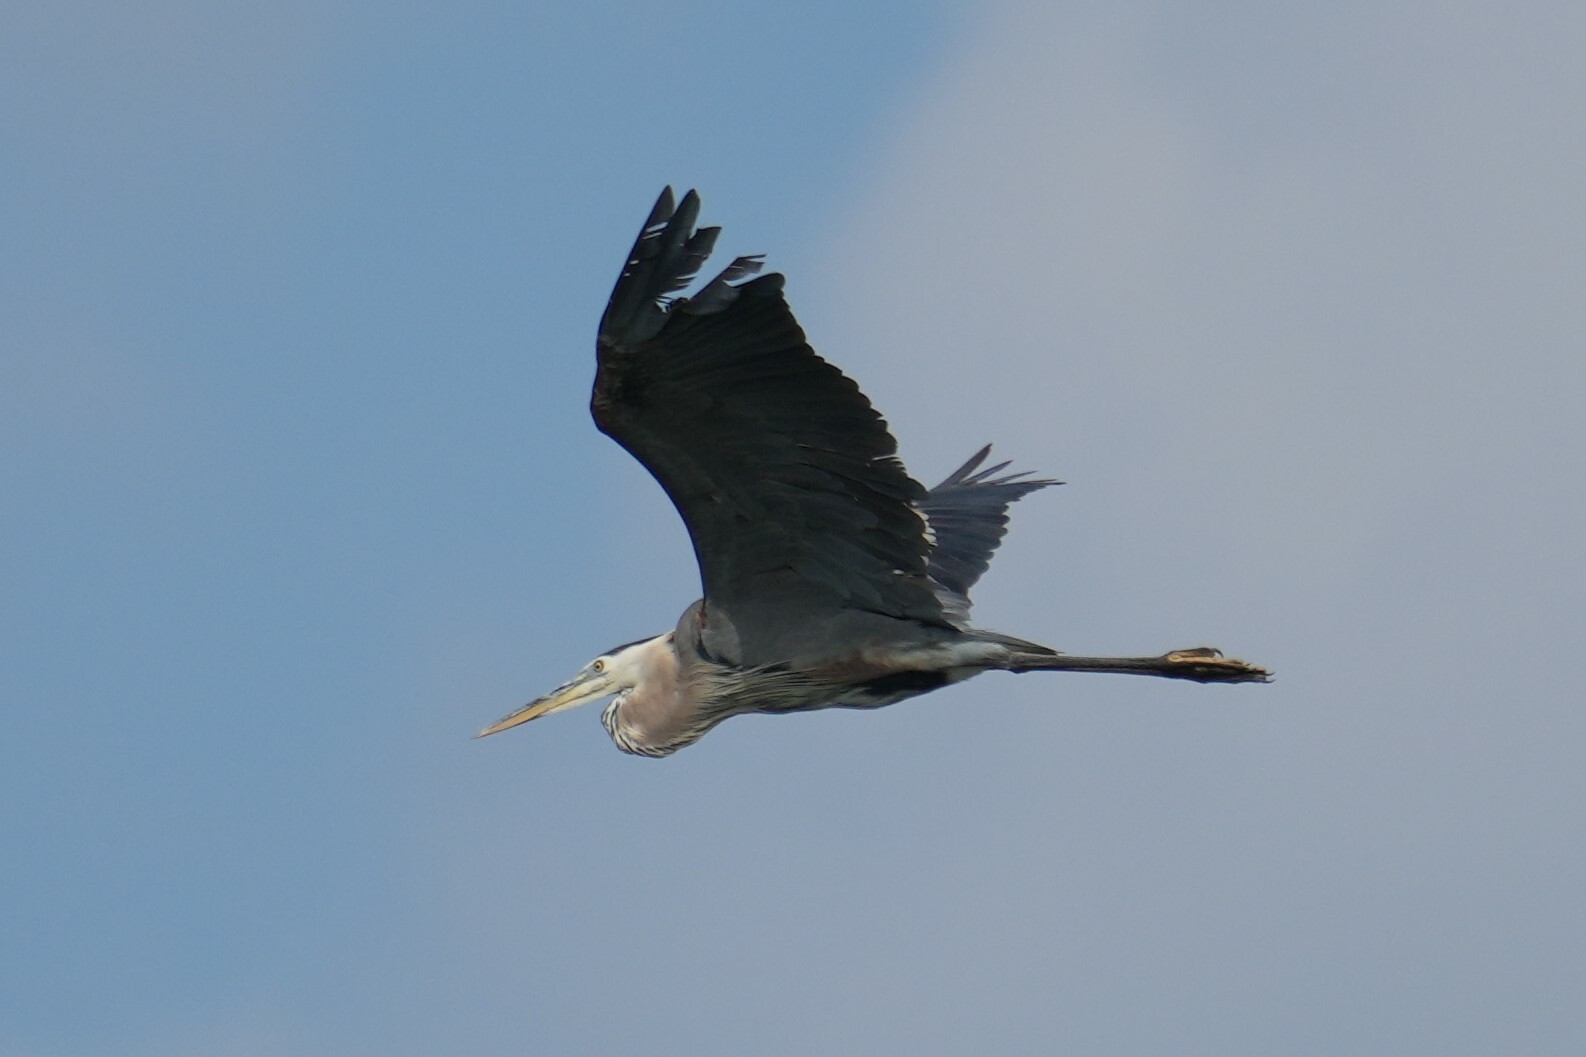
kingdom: Animalia
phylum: Chordata
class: Aves
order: Pelecaniformes
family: Ardeidae
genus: Ardea
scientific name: Ardea herodias
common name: Great blue heron
